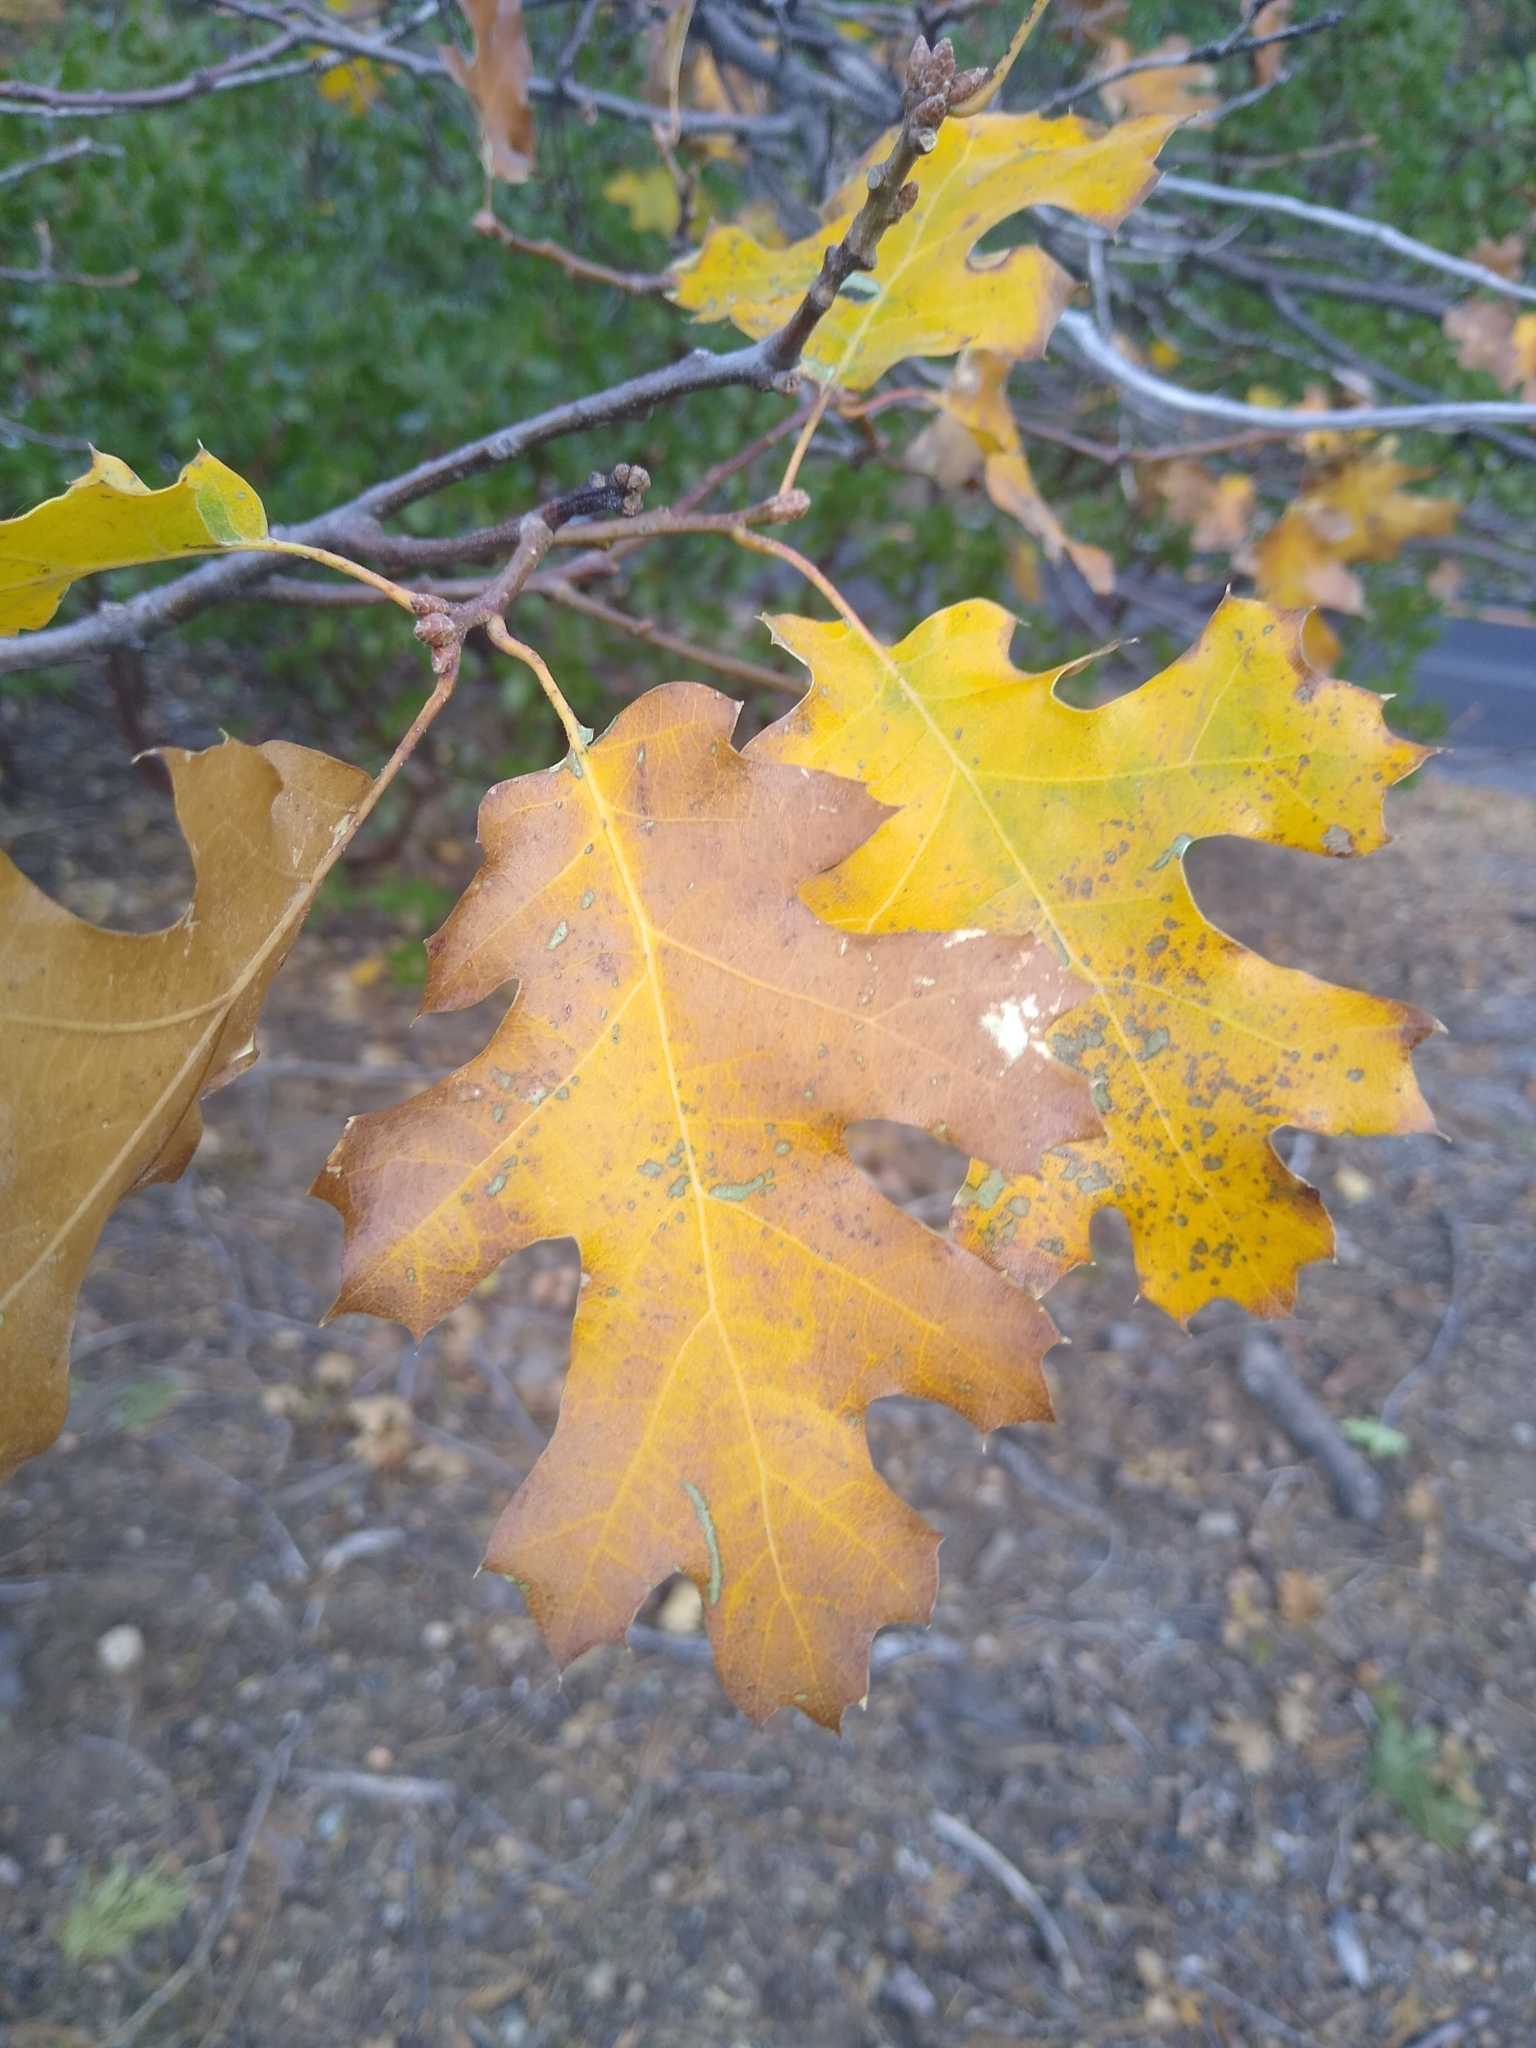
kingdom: Plantae
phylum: Tracheophyta
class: Magnoliopsida
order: Fagales
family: Fagaceae
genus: Quercus
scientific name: Quercus kelloggii
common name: California black oak
